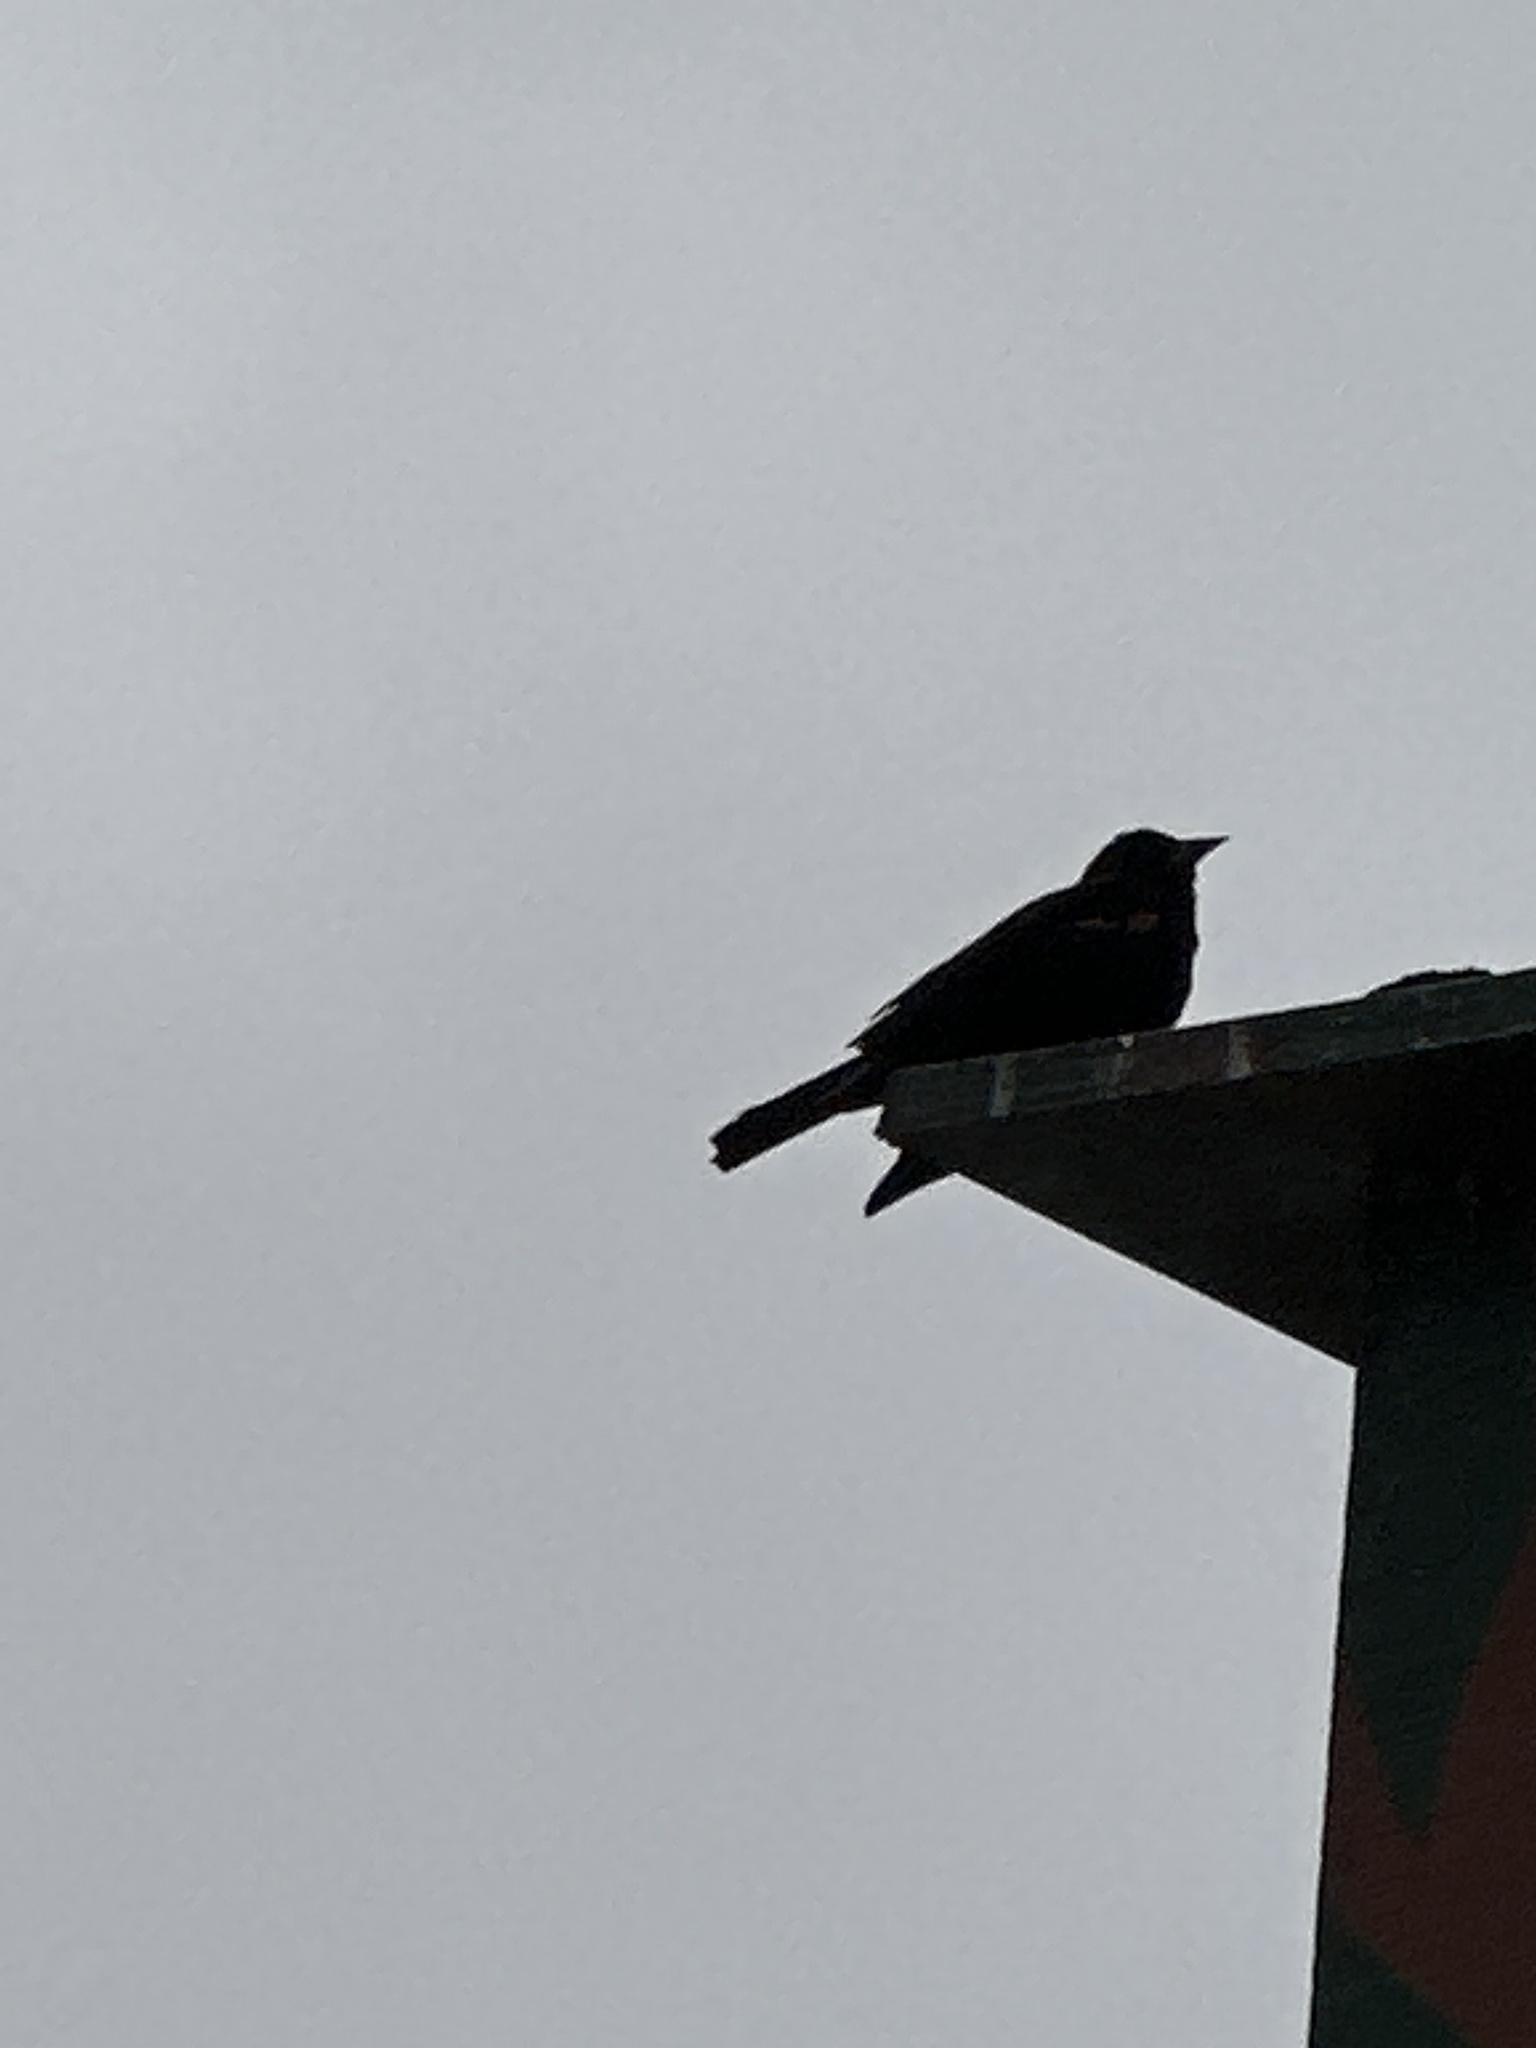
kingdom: Animalia
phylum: Chordata
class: Aves
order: Passeriformes
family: Icteridae
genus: Agelaius
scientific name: Agelaius phoeniceus
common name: Red-winged blackbird
